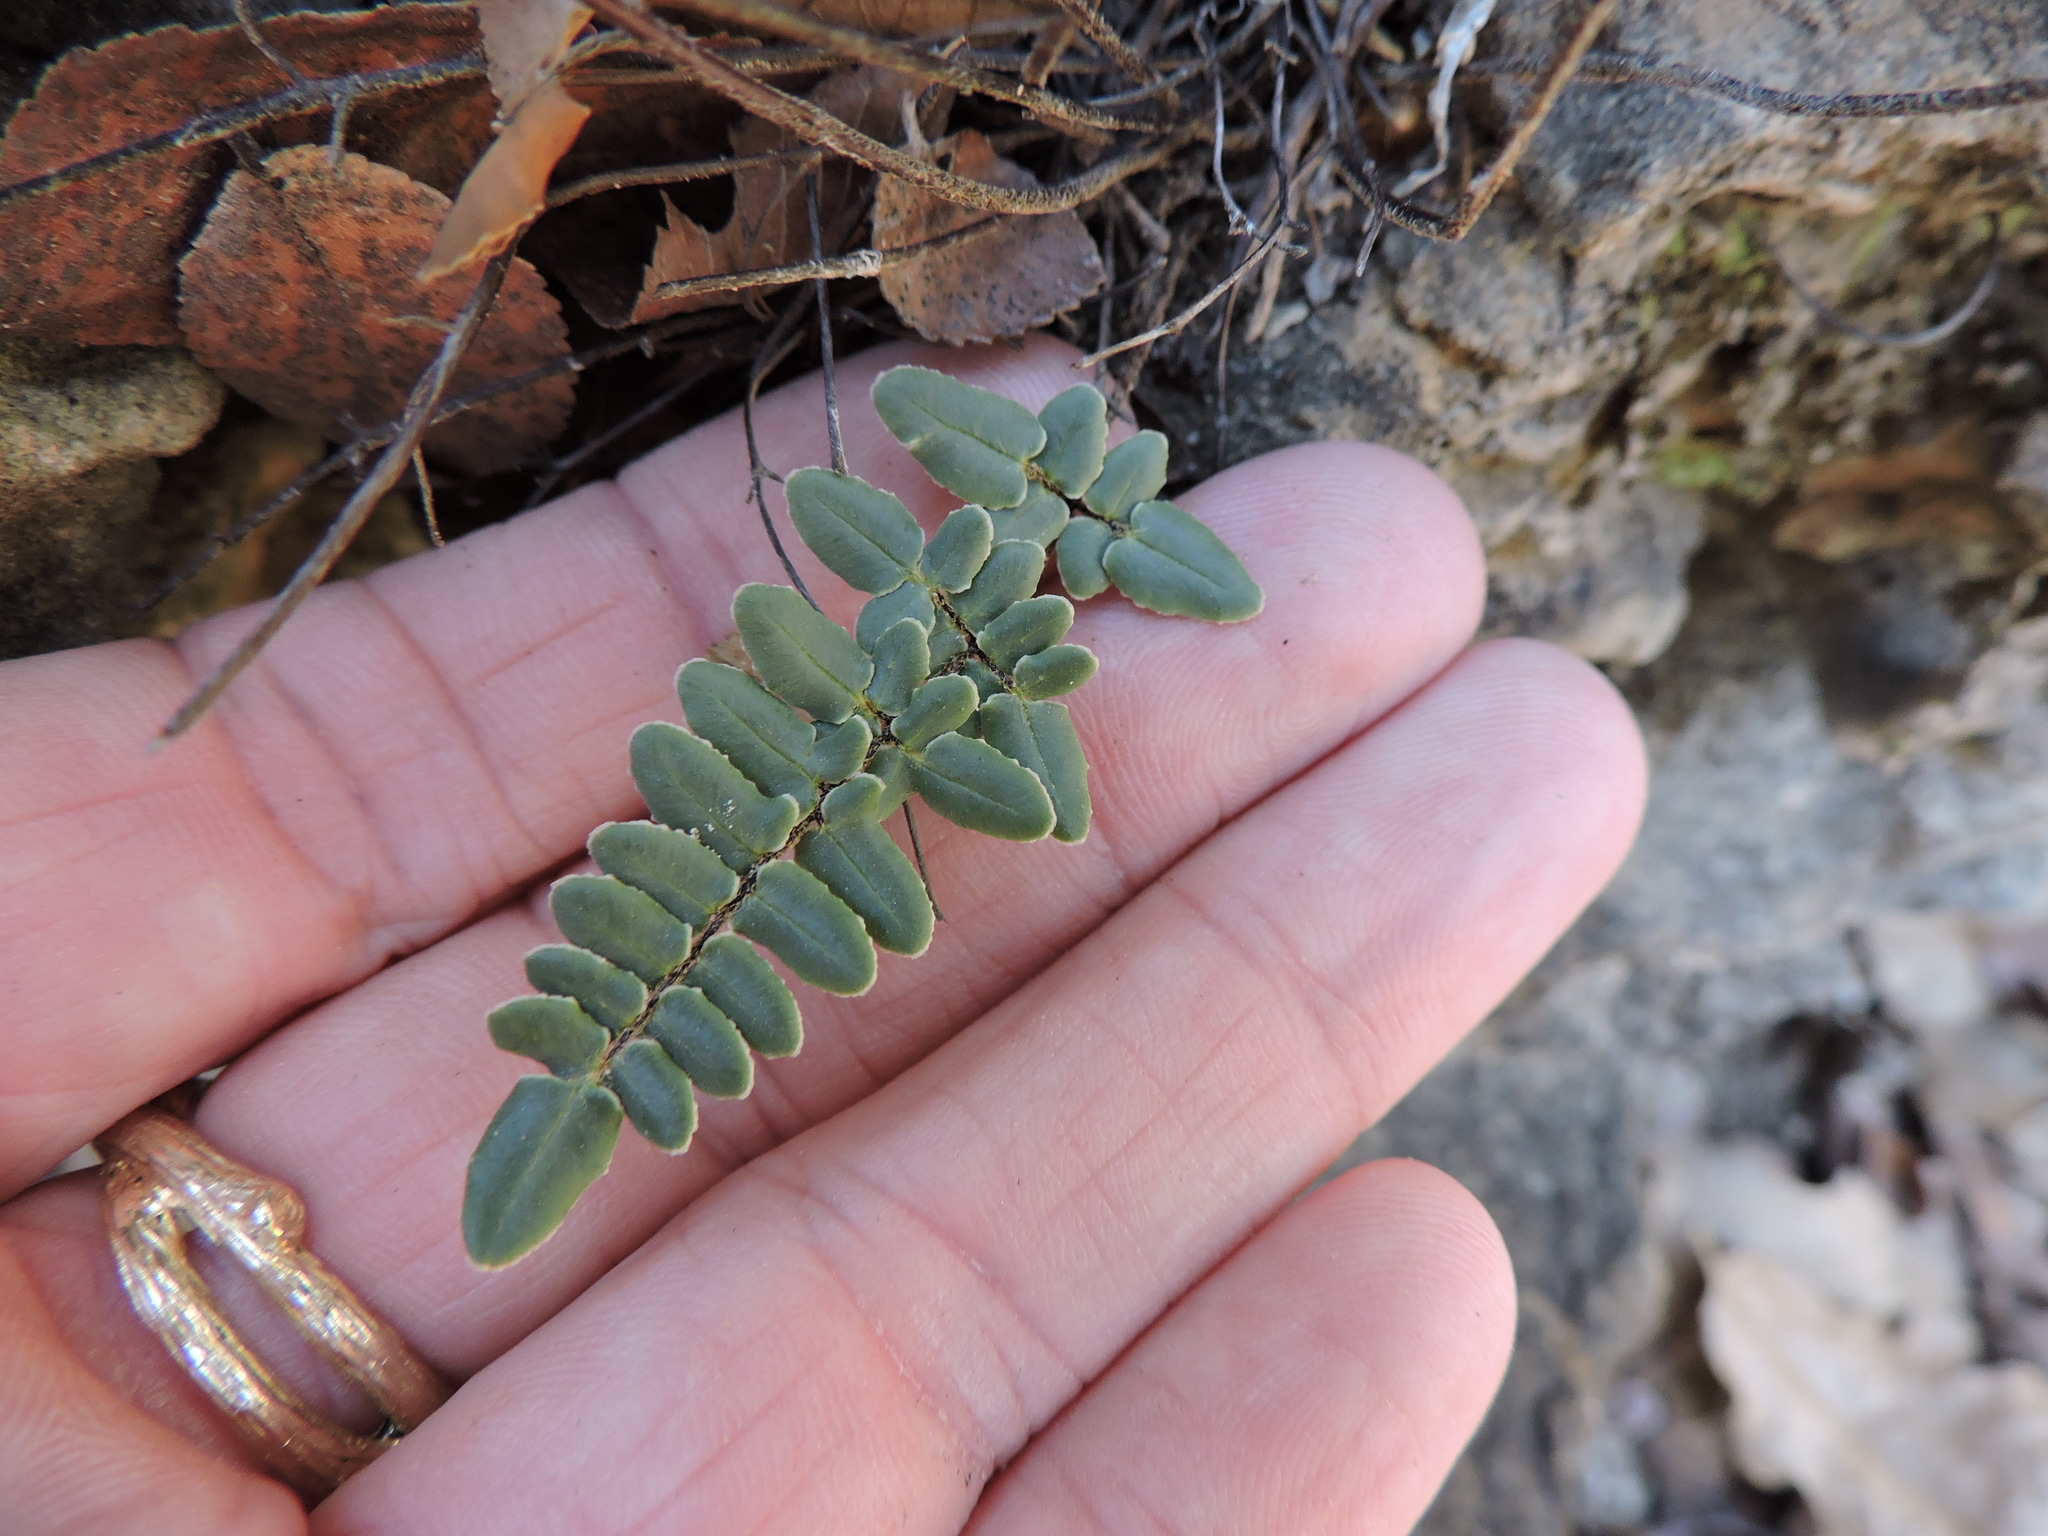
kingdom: Plantae
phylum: Tracheophyta
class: Polypodiopsida
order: Polypodiales
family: Pteridaceae
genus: Pellaea
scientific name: Pellaea atropurpurea
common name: Hairy cliffbrake
